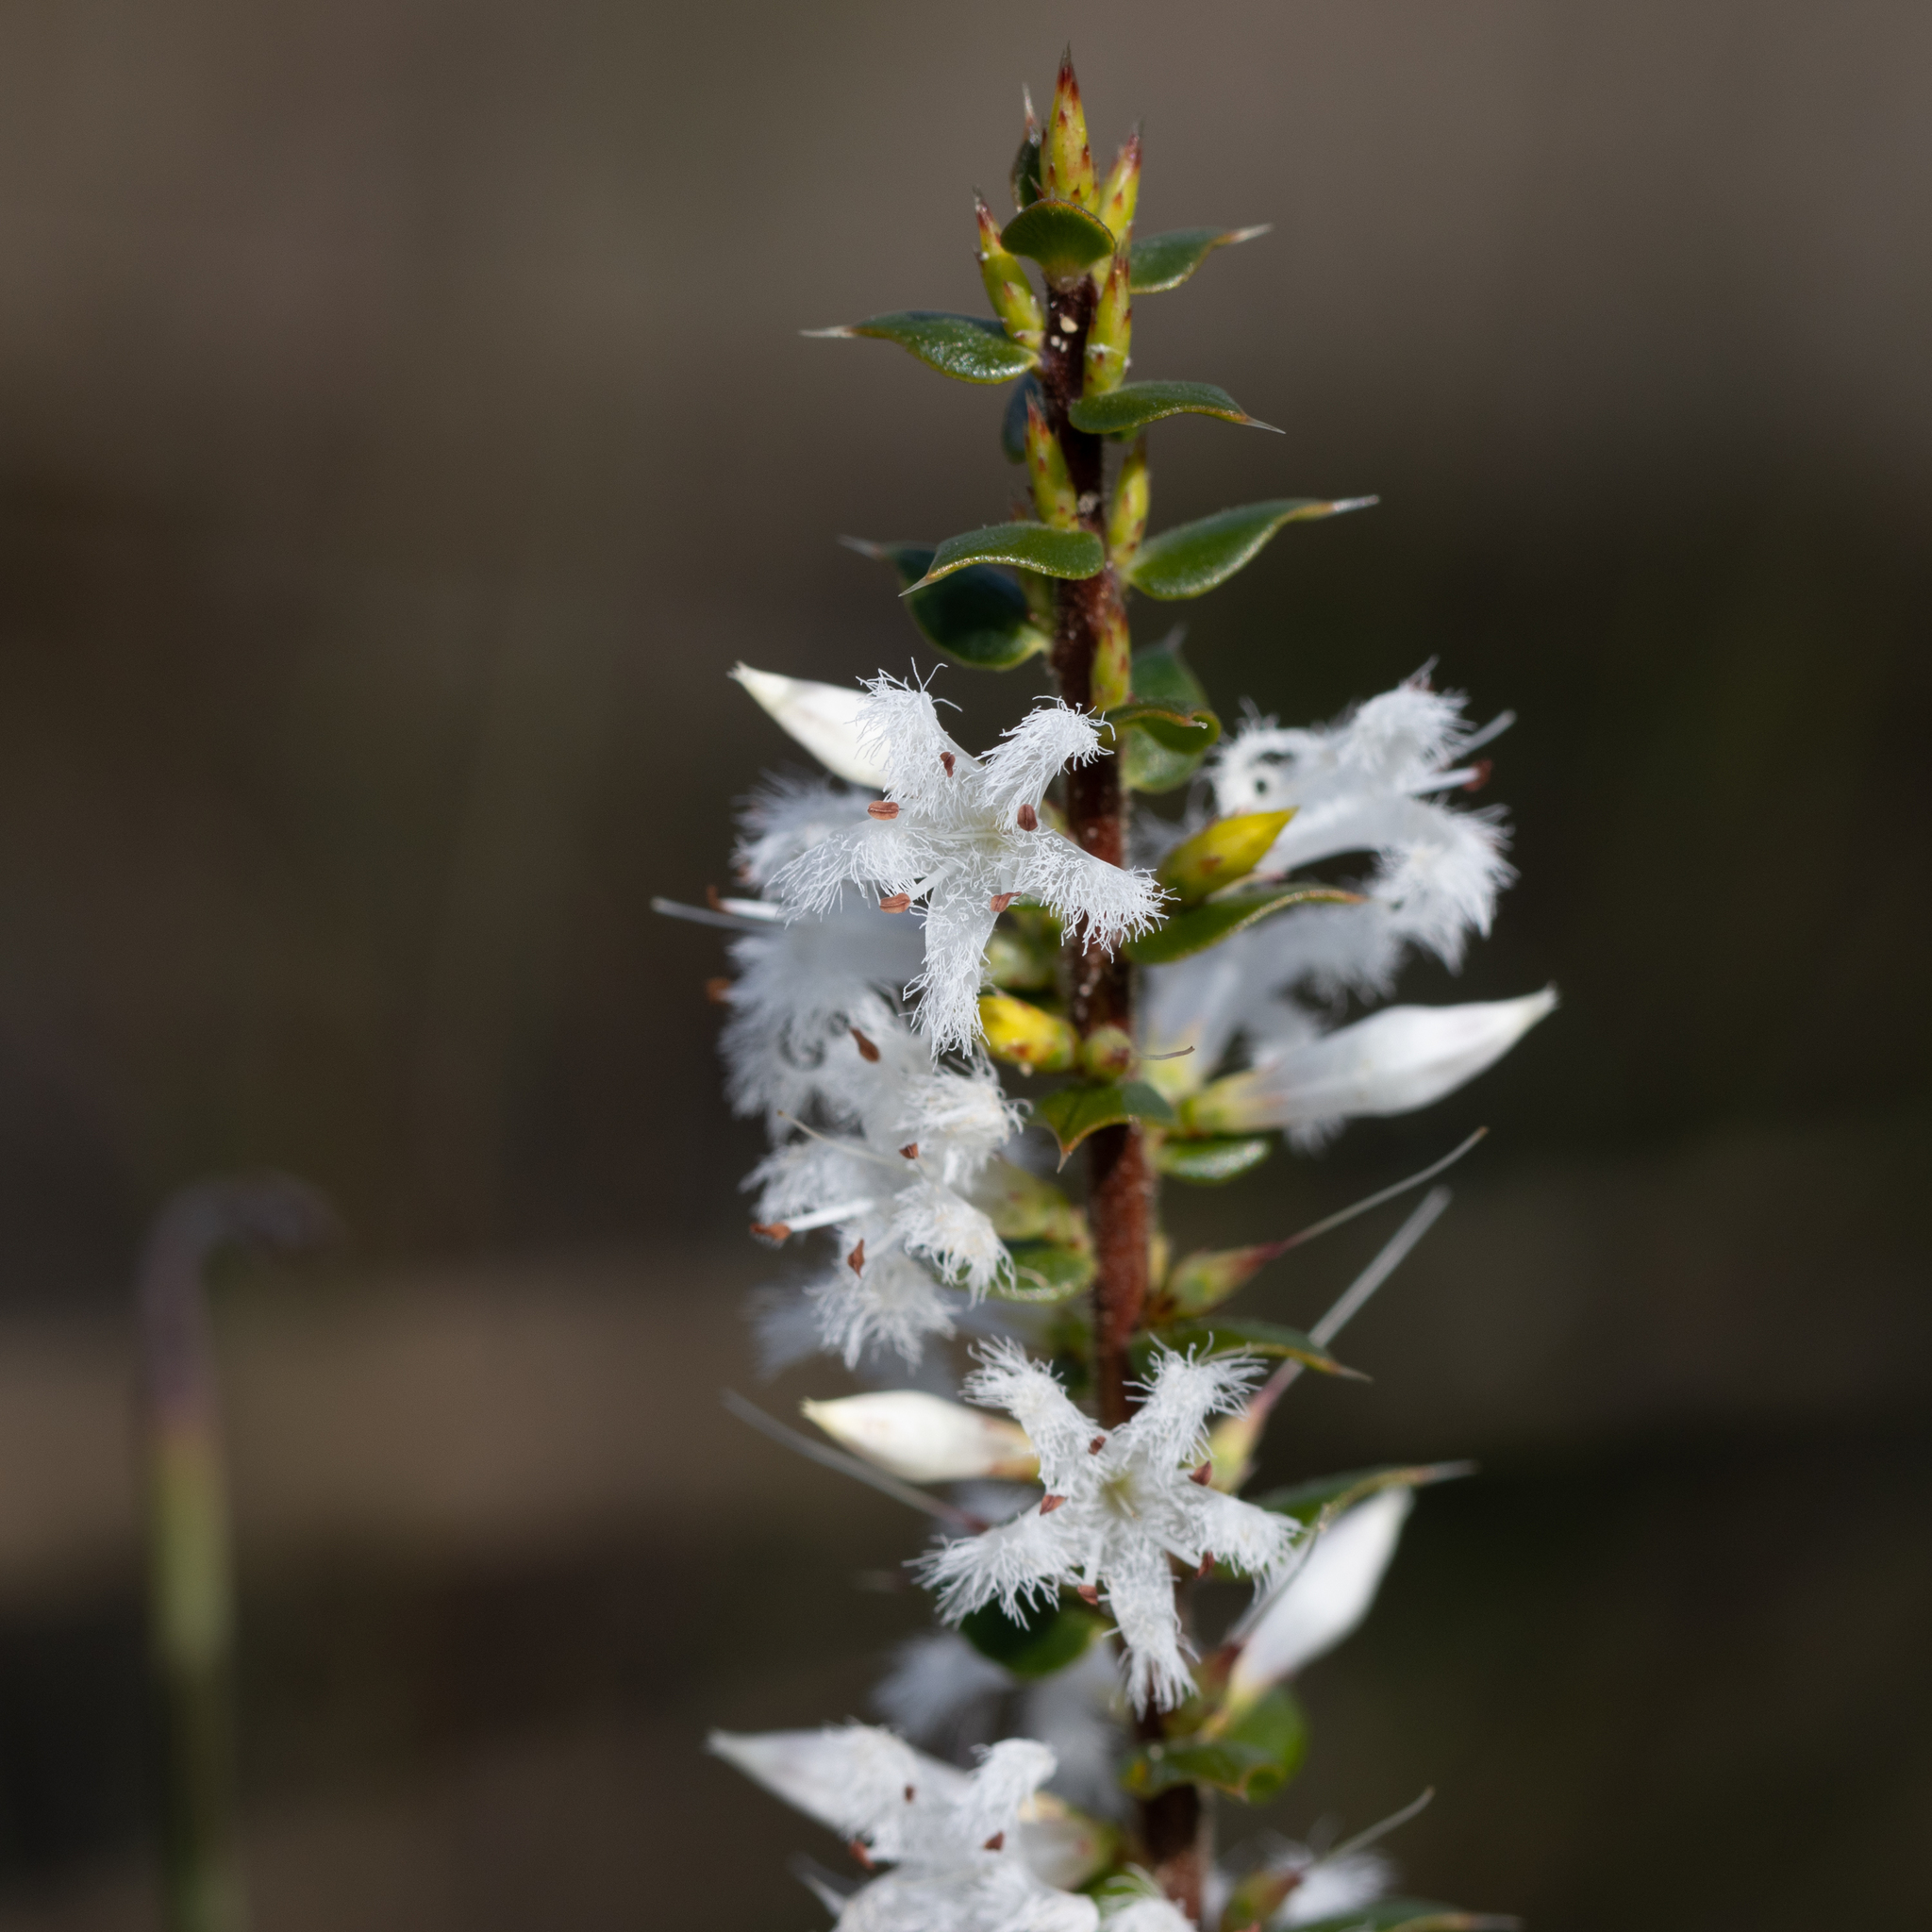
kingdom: Plantae
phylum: Tracheophyta
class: Magnoliopsida
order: Ericales
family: Ericaceae
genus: Styphelia
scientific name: Styphelia exarrhena
